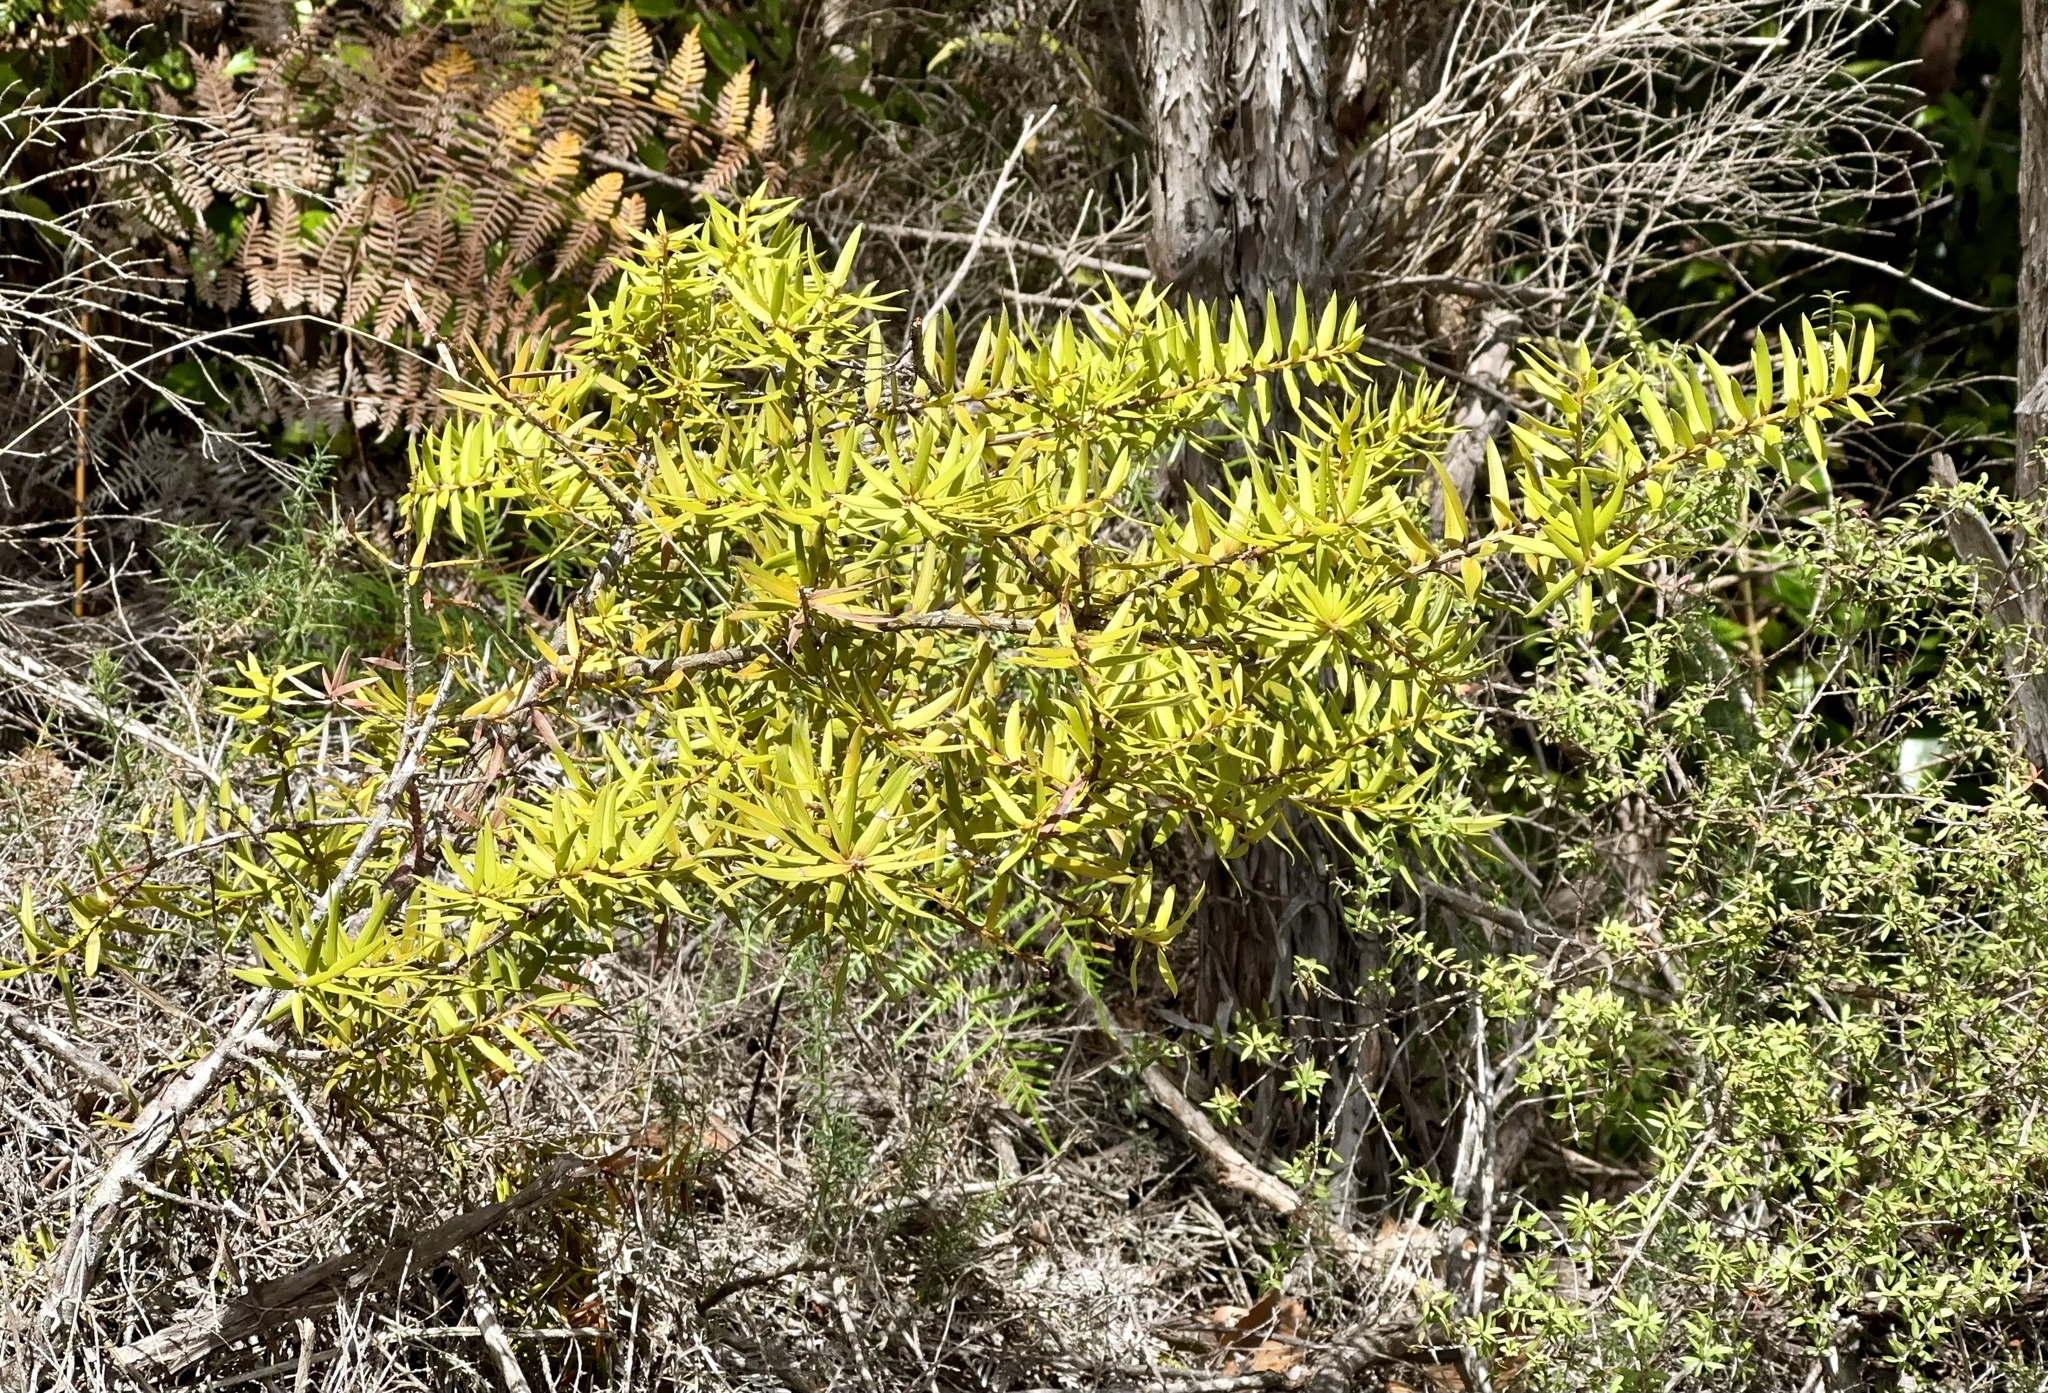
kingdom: Plantae
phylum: Tracheophyta
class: Pinopsida
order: Pinales
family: Podocarpaceae
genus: Podocarpus
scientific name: Podocarpus laetus
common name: Hall's totara
